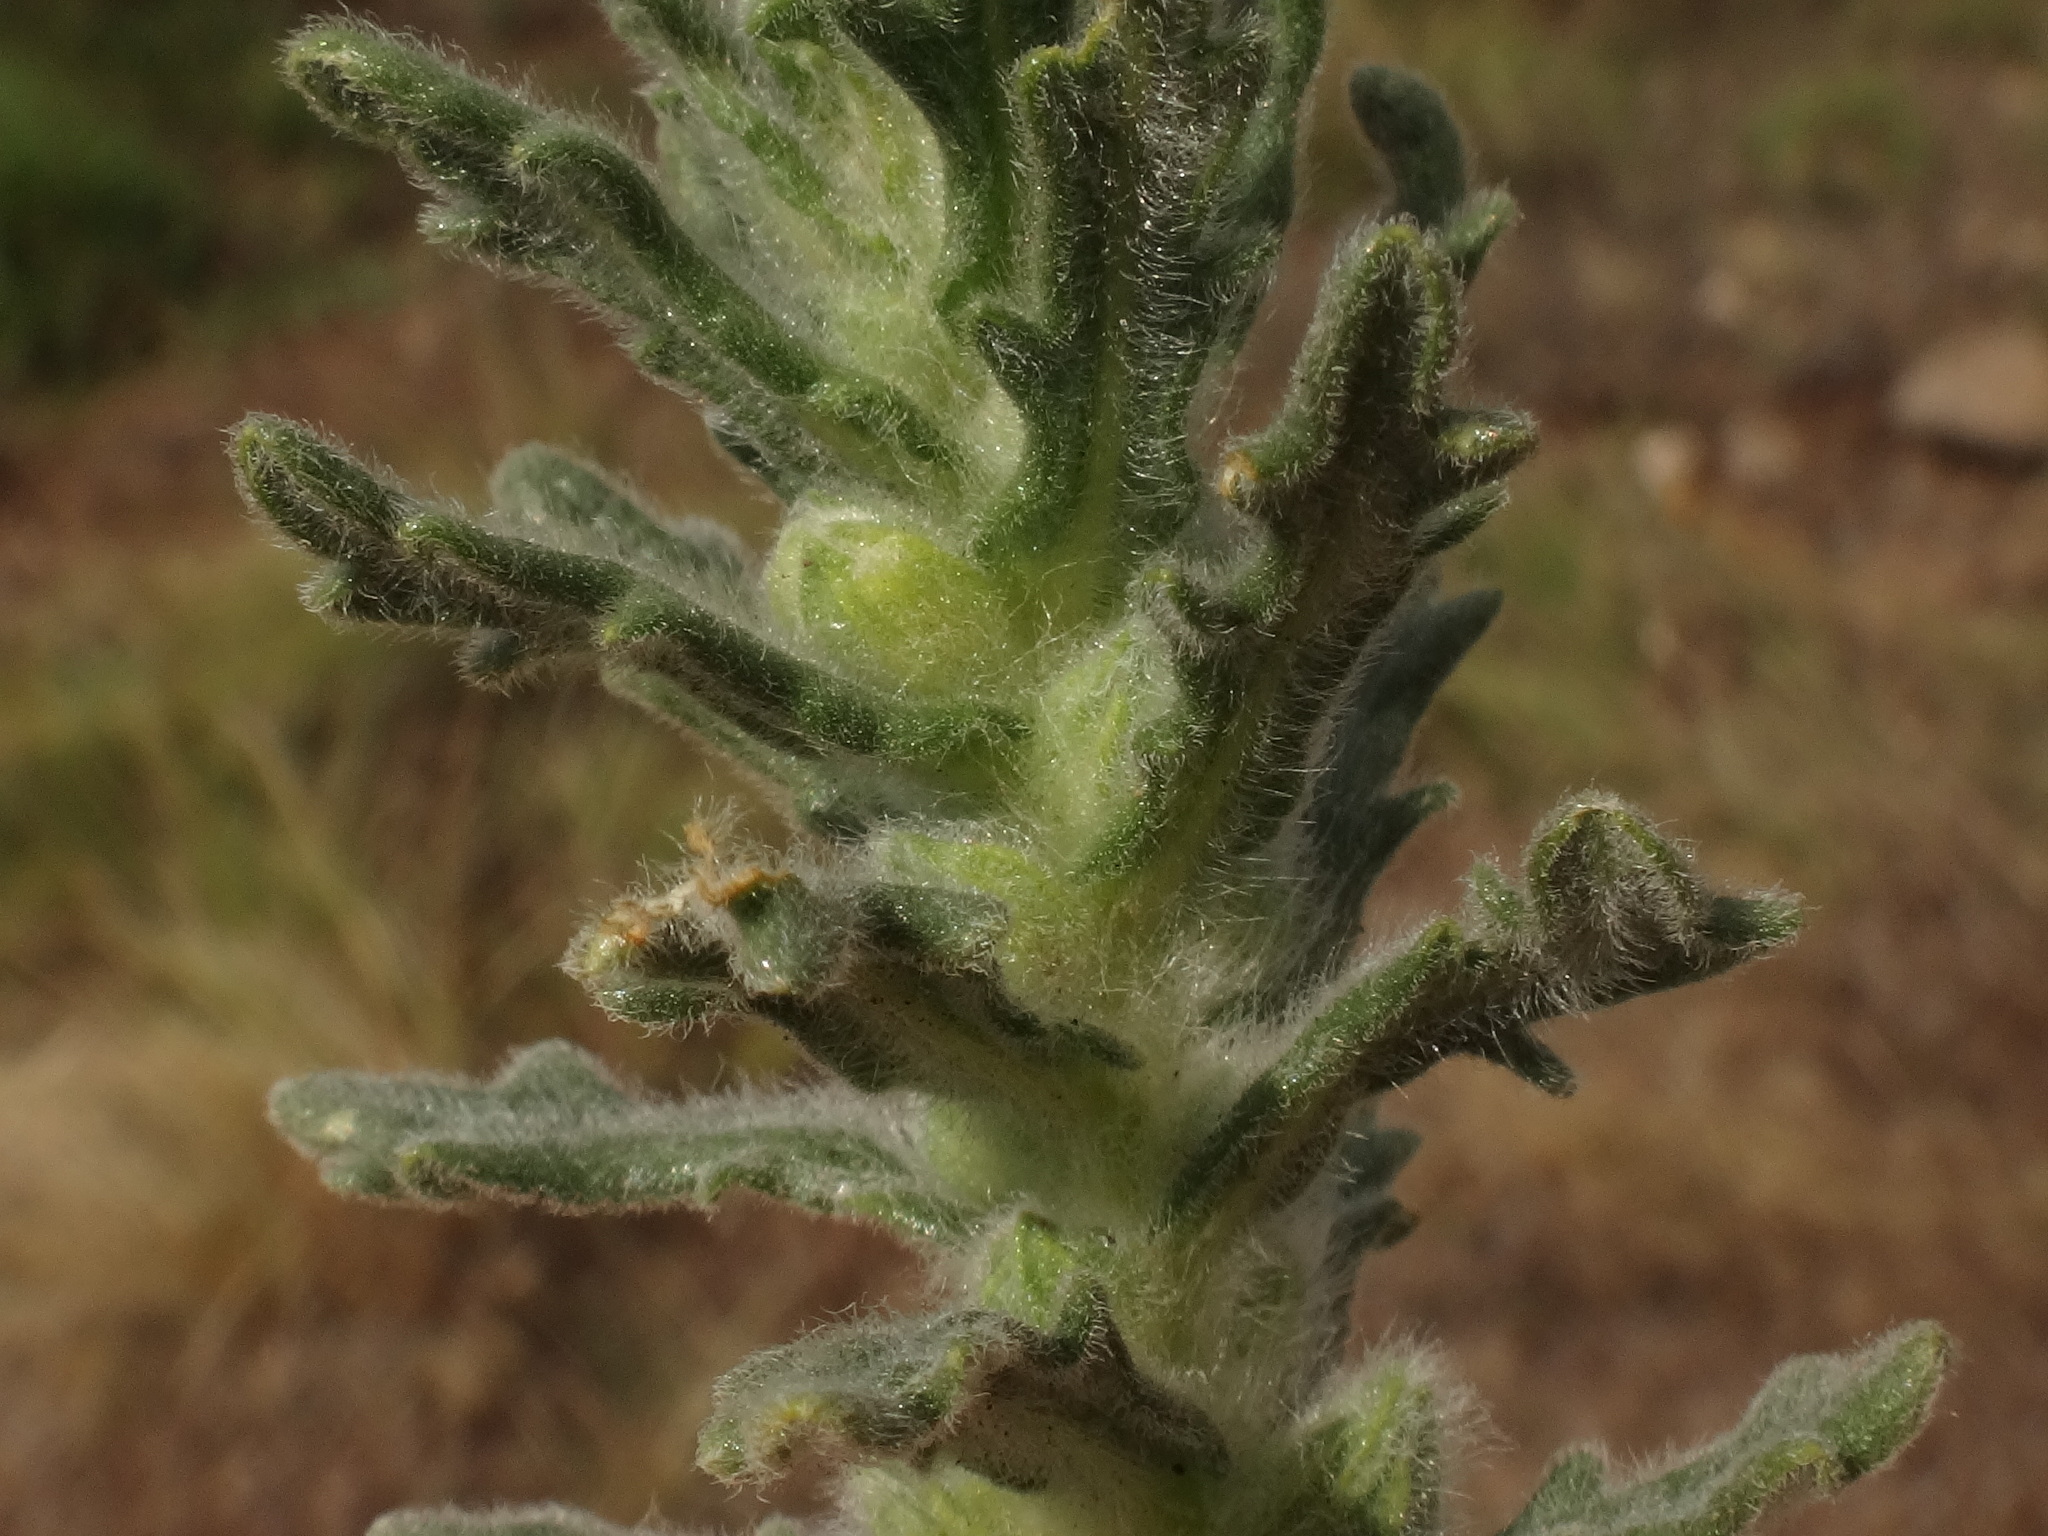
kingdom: Plantae
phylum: Tracheophyta
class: Magnoliopsida
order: Lamiales
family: Lamiaceae
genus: Ajuga
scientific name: Ajuga iva
